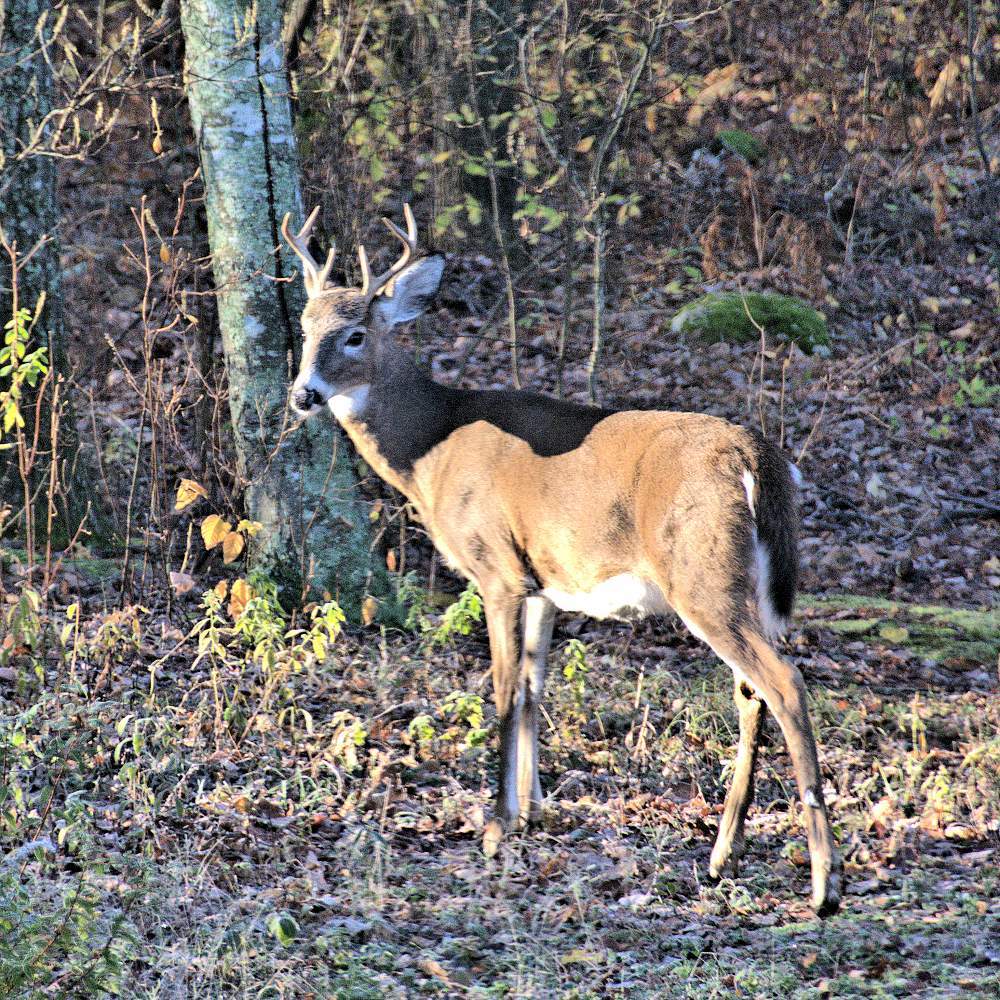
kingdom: Animalia
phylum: Chordata
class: Mammalia
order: Artiodactyla
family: Cervidae
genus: Odocoileus
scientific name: Odocoileus virginianus
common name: White-tailed deer
